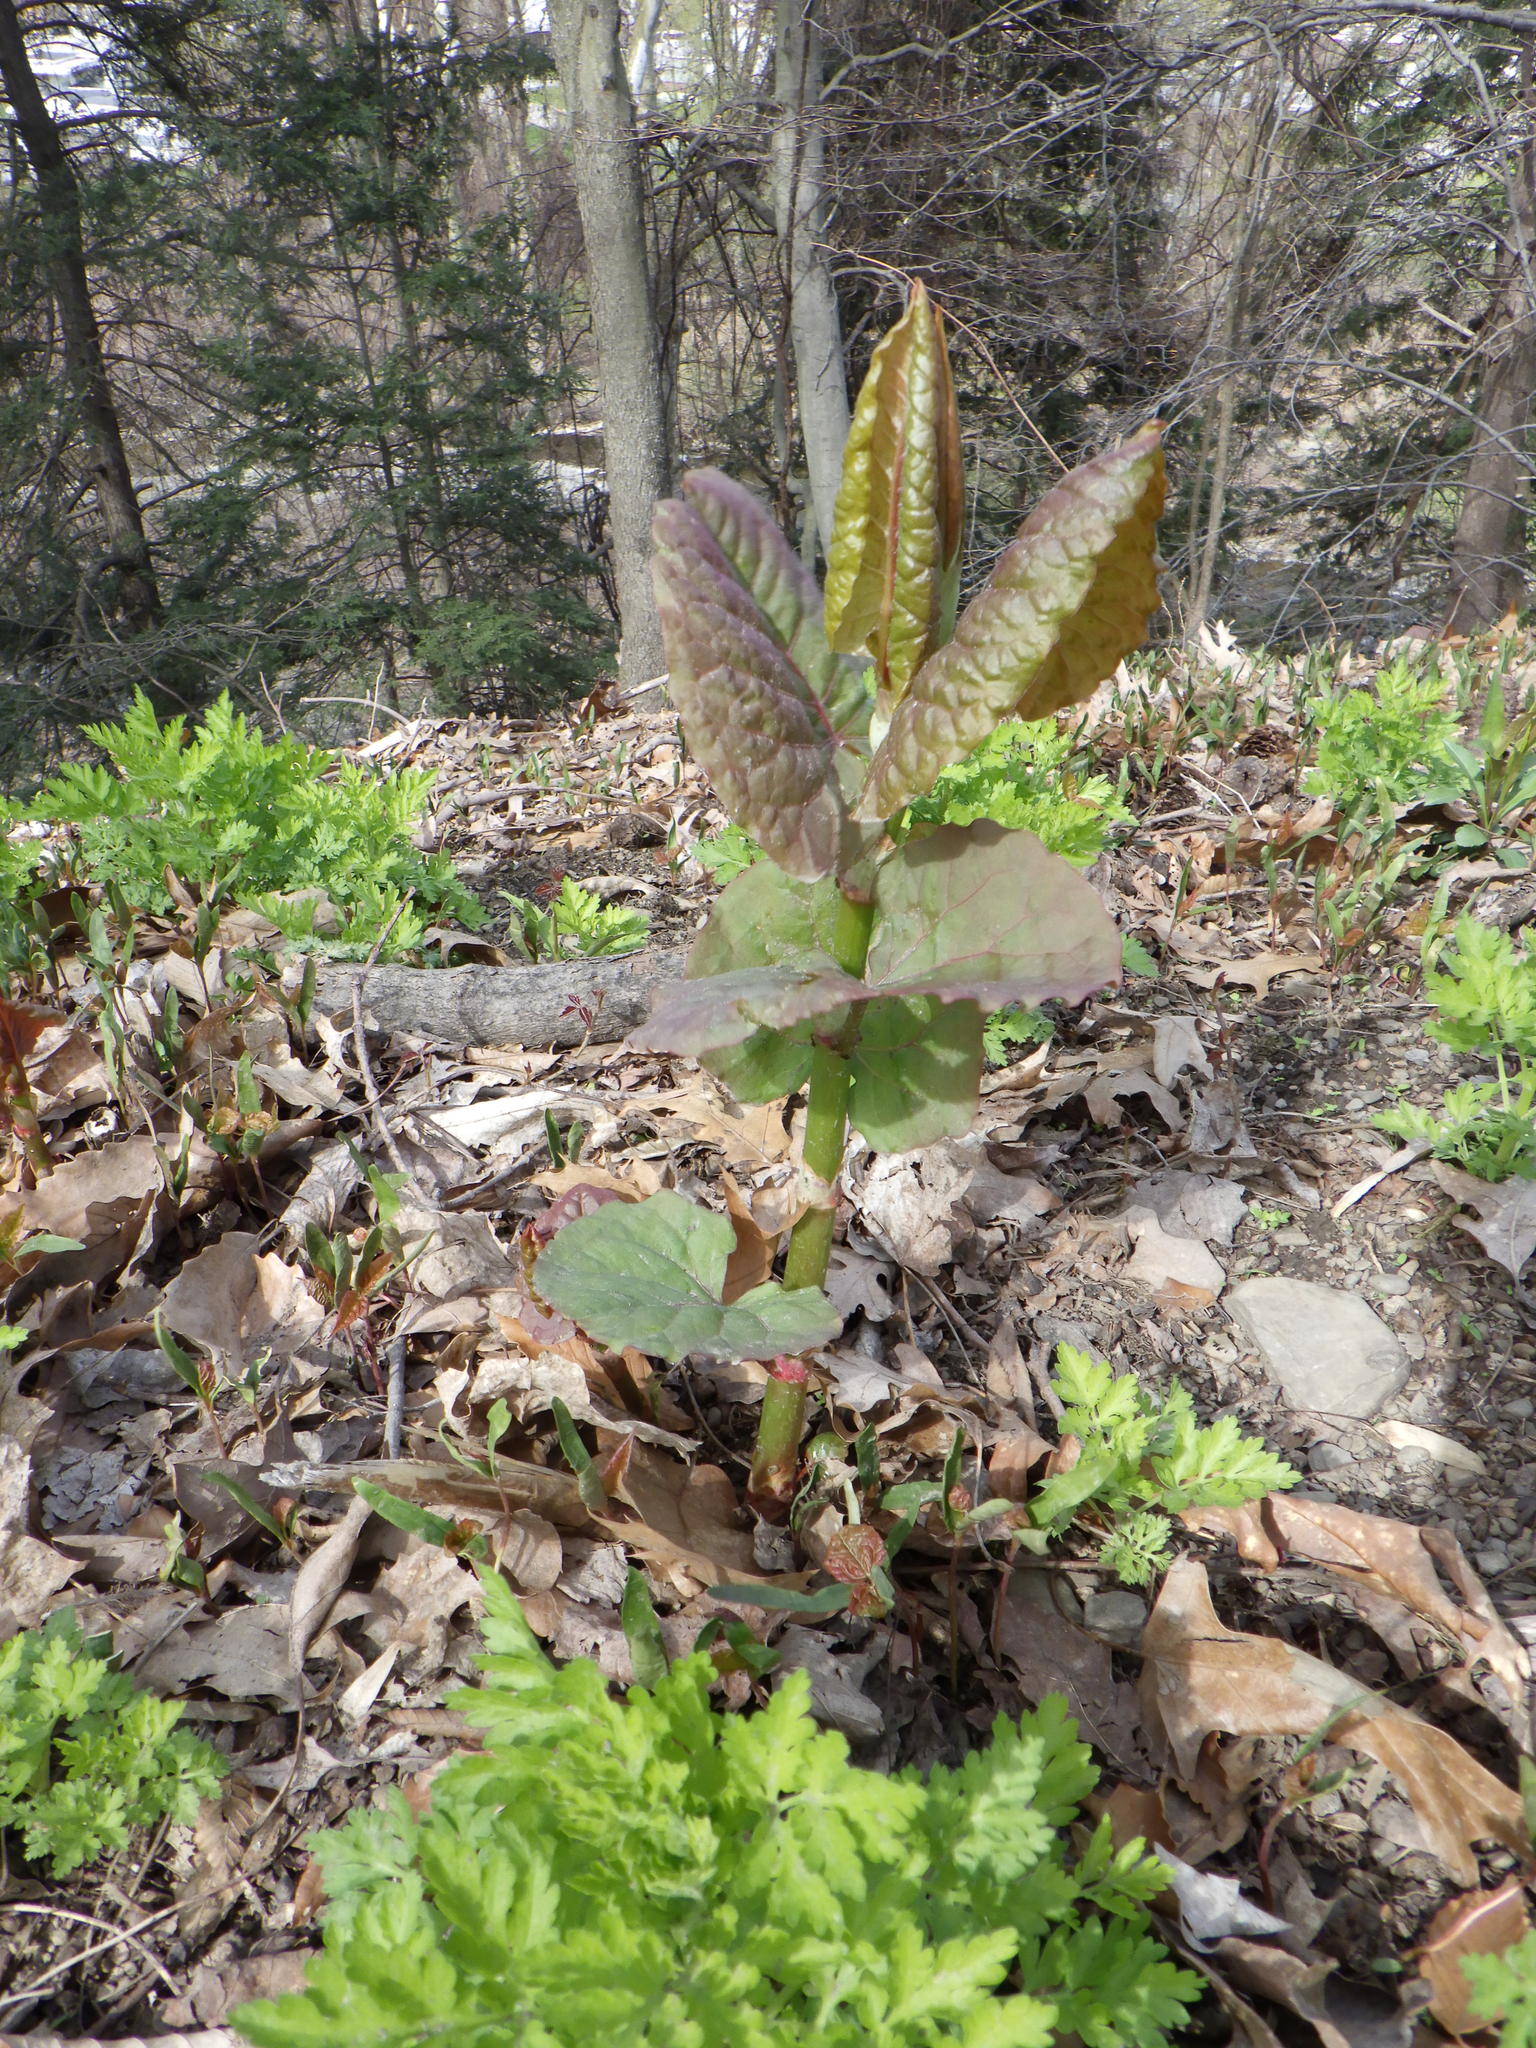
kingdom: Plantae
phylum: Tracheophyta
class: Magnoliopsida
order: Caryophyllales
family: Polygonaceae
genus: Reynoutria
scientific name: Reynoutria japonica
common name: Japanese knotweed
